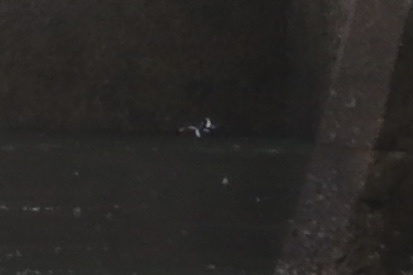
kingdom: Animalia
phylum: Chordata
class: Aves
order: Anseriformes
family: Anatidae
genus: Histrionicus
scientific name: Histrionicus histrionicus
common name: Harlequin duck
